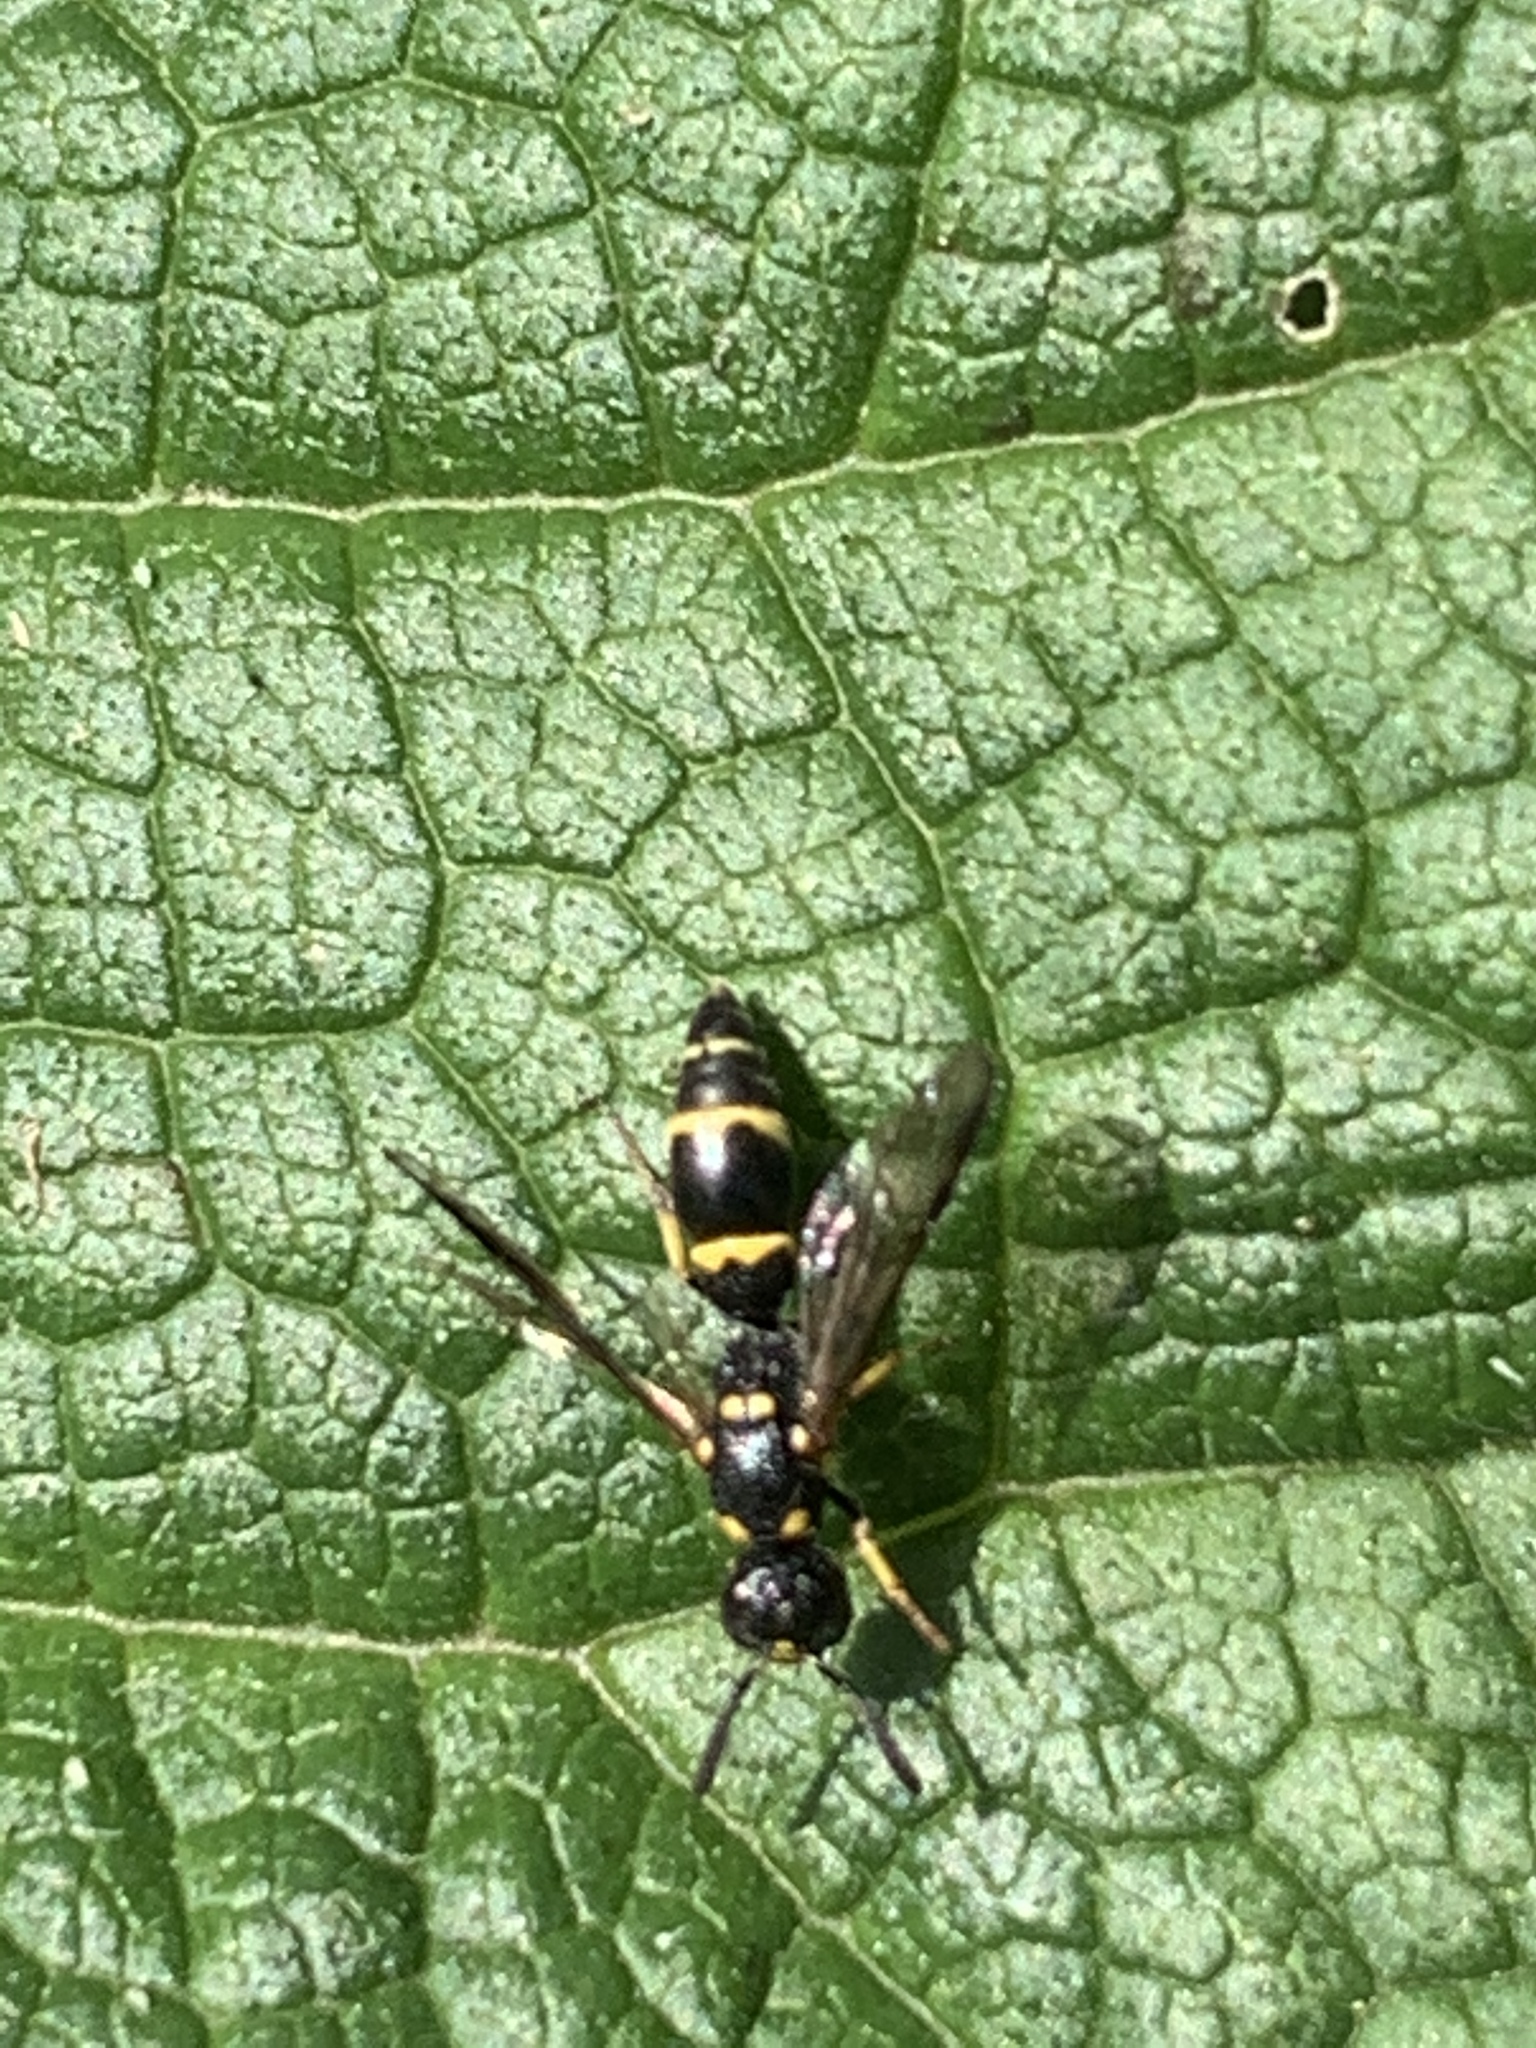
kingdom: Animalia
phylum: Arthropoda
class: Insecta
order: Hymenoptera
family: Eumenidae
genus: Symmorphus
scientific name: Symmorphus
